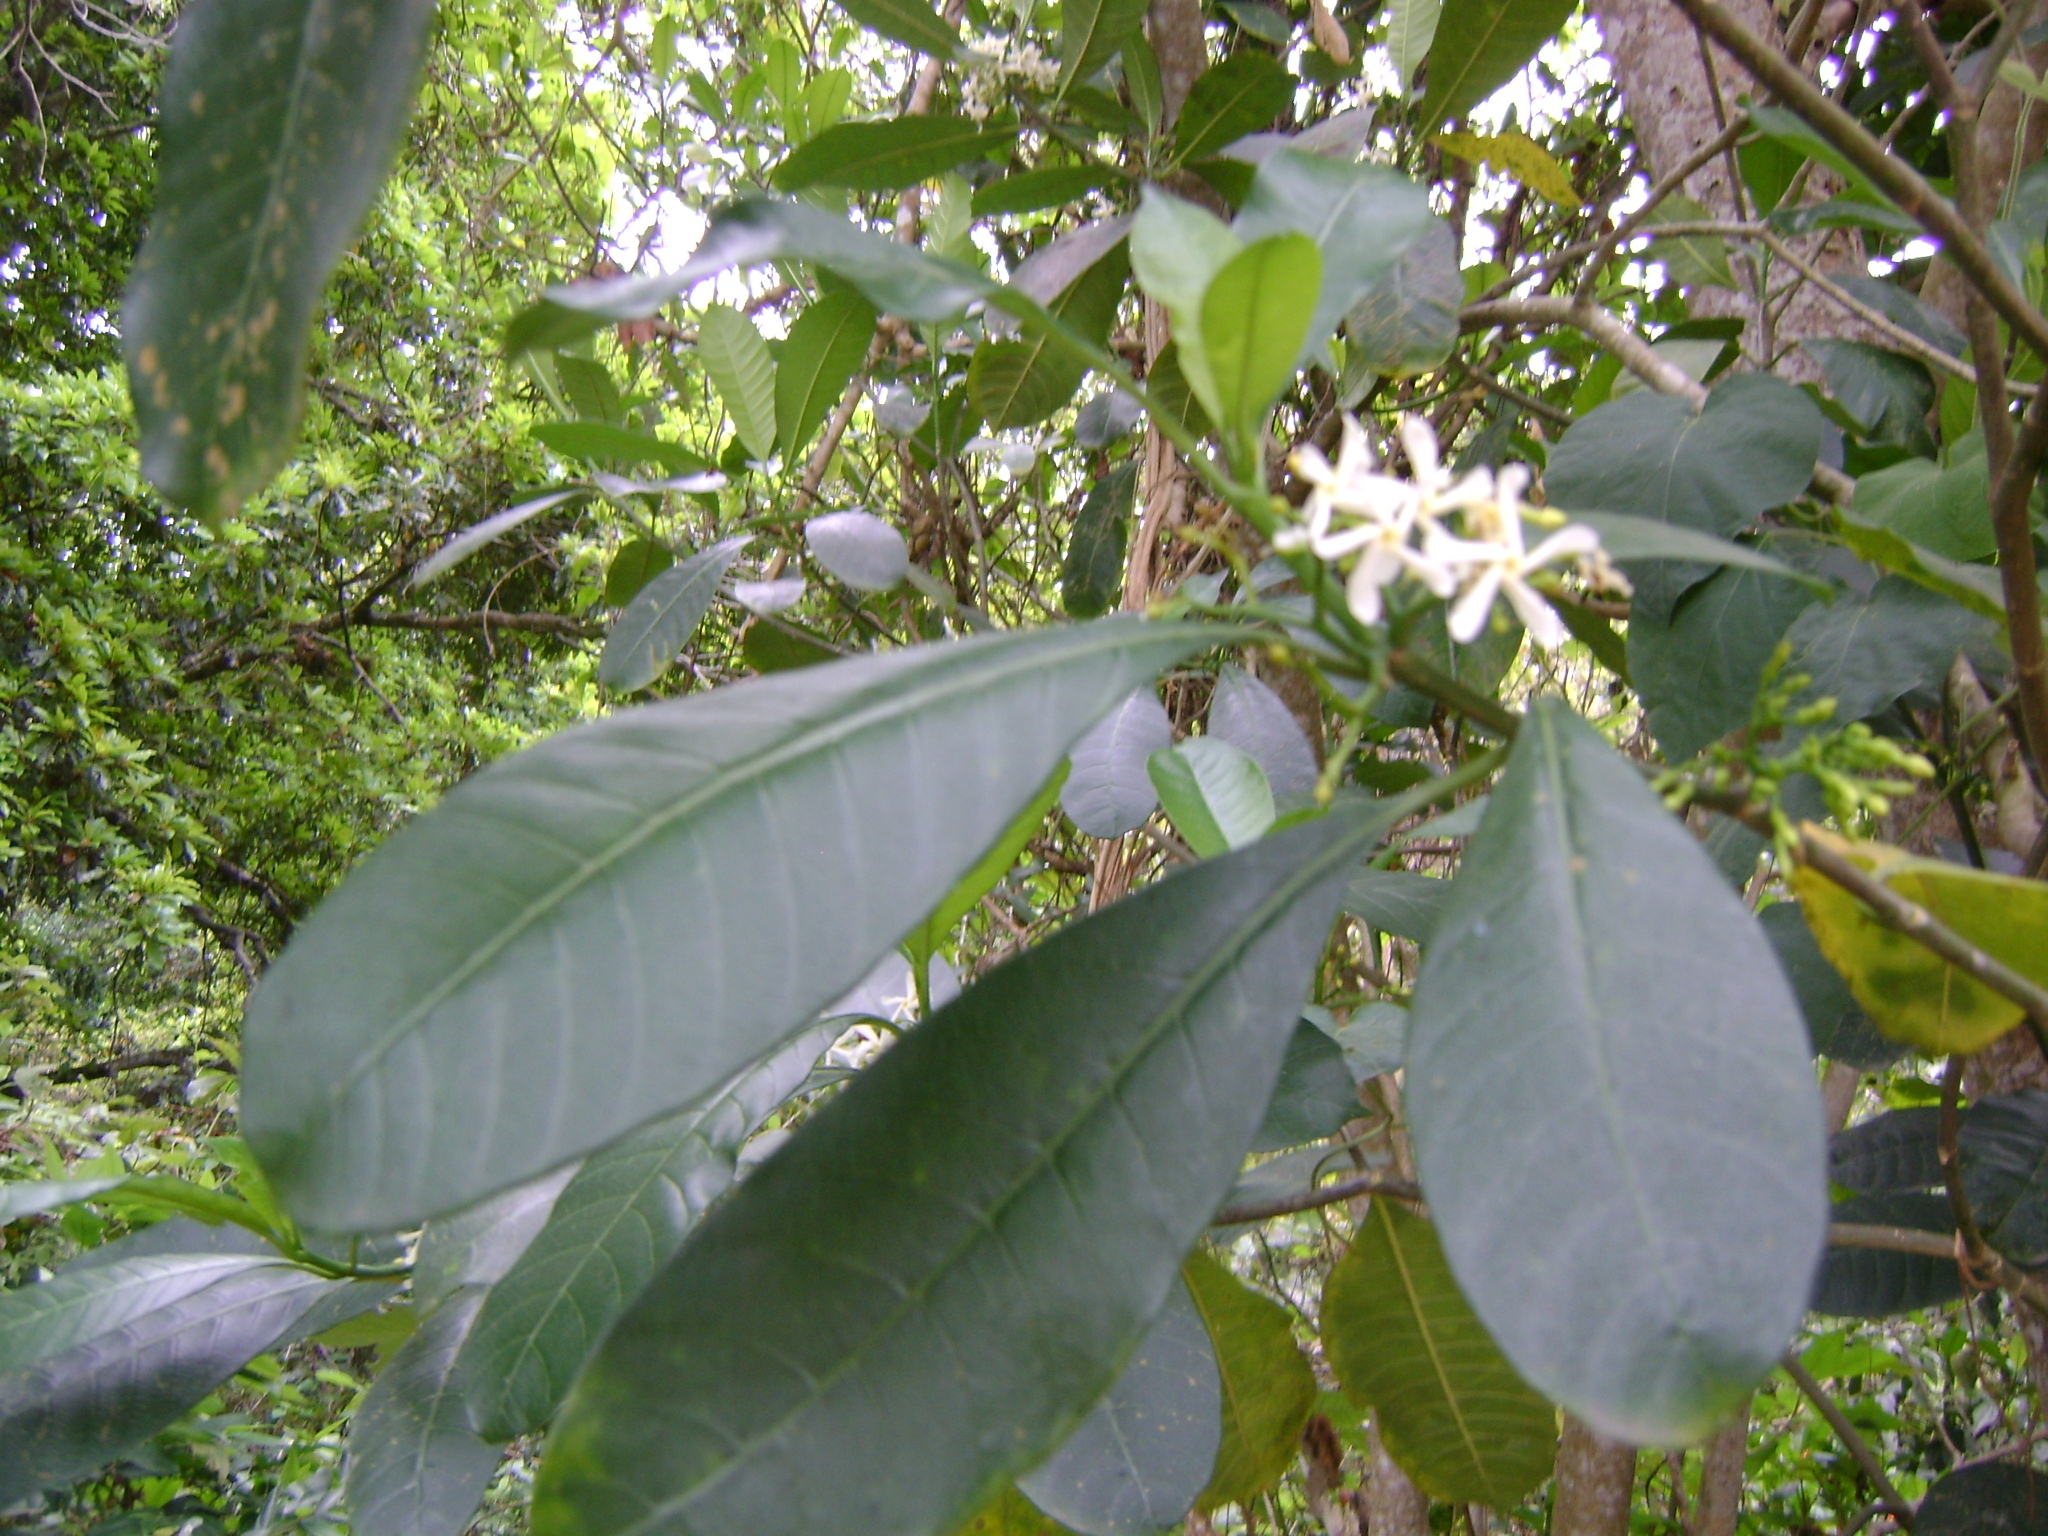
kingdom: Plantae
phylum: Tracheophyta
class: Magnoliopsida
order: Gentianales
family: Apocynaceae
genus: Tabernaemontana
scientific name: Tabernaemontana alba
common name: White milkwood
